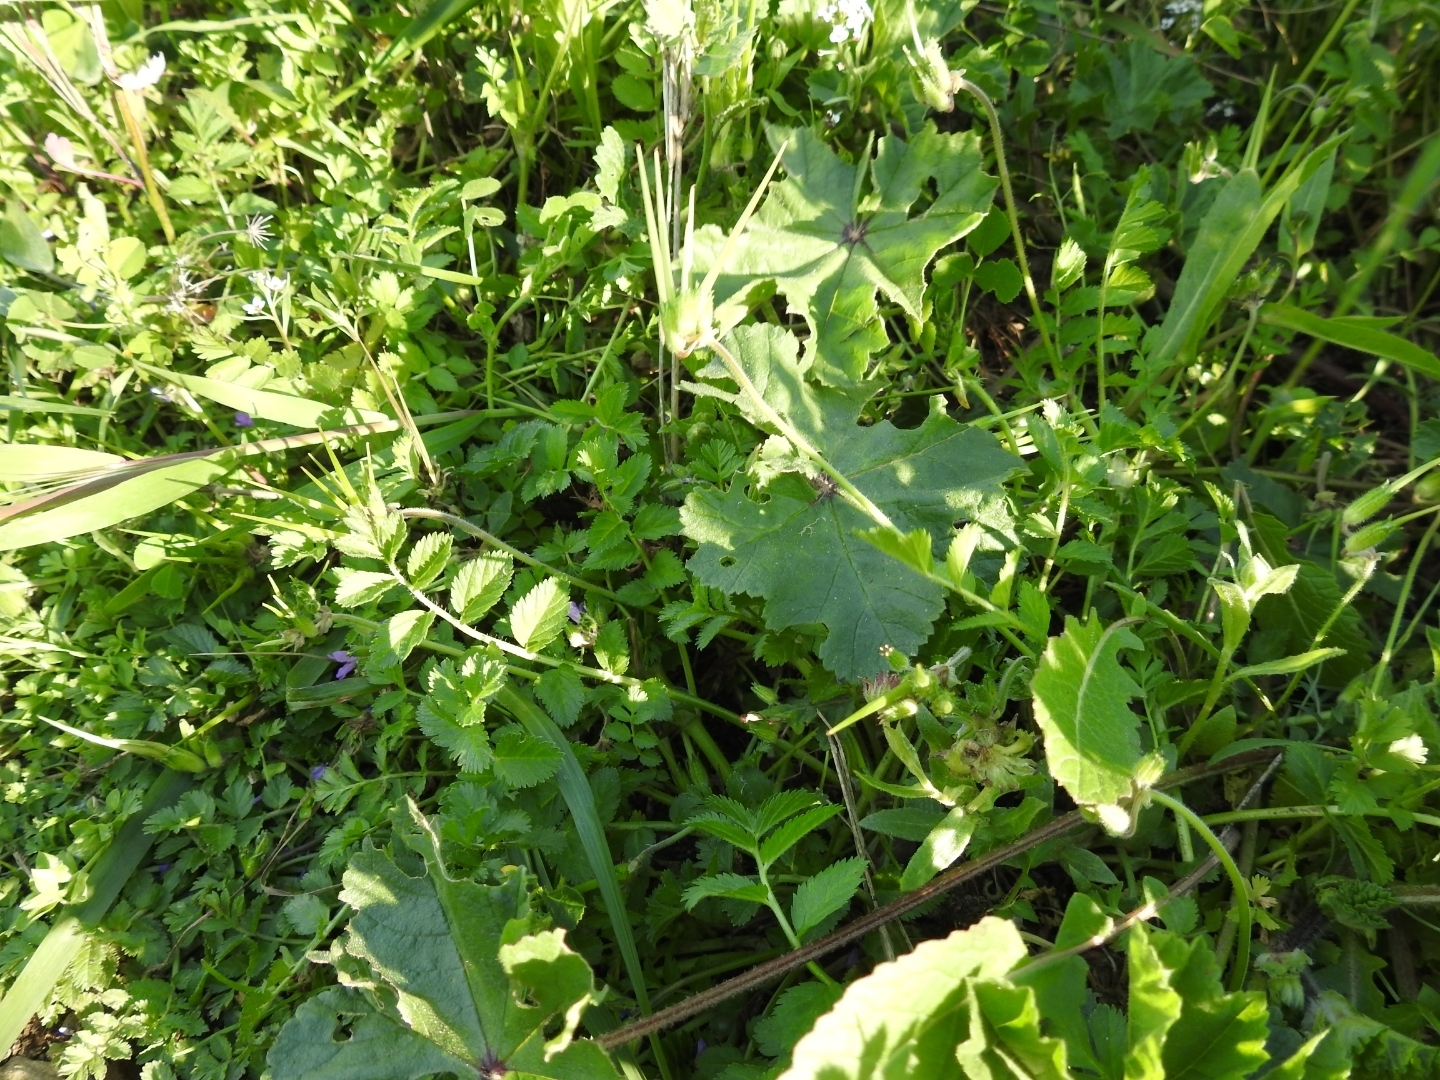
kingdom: Plantae
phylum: Tracheophyta
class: Magnoliopsida
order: Geraniales
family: Geraniaceae
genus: Erodium
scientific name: Erodium moschatum
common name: Musk stork's-bill
